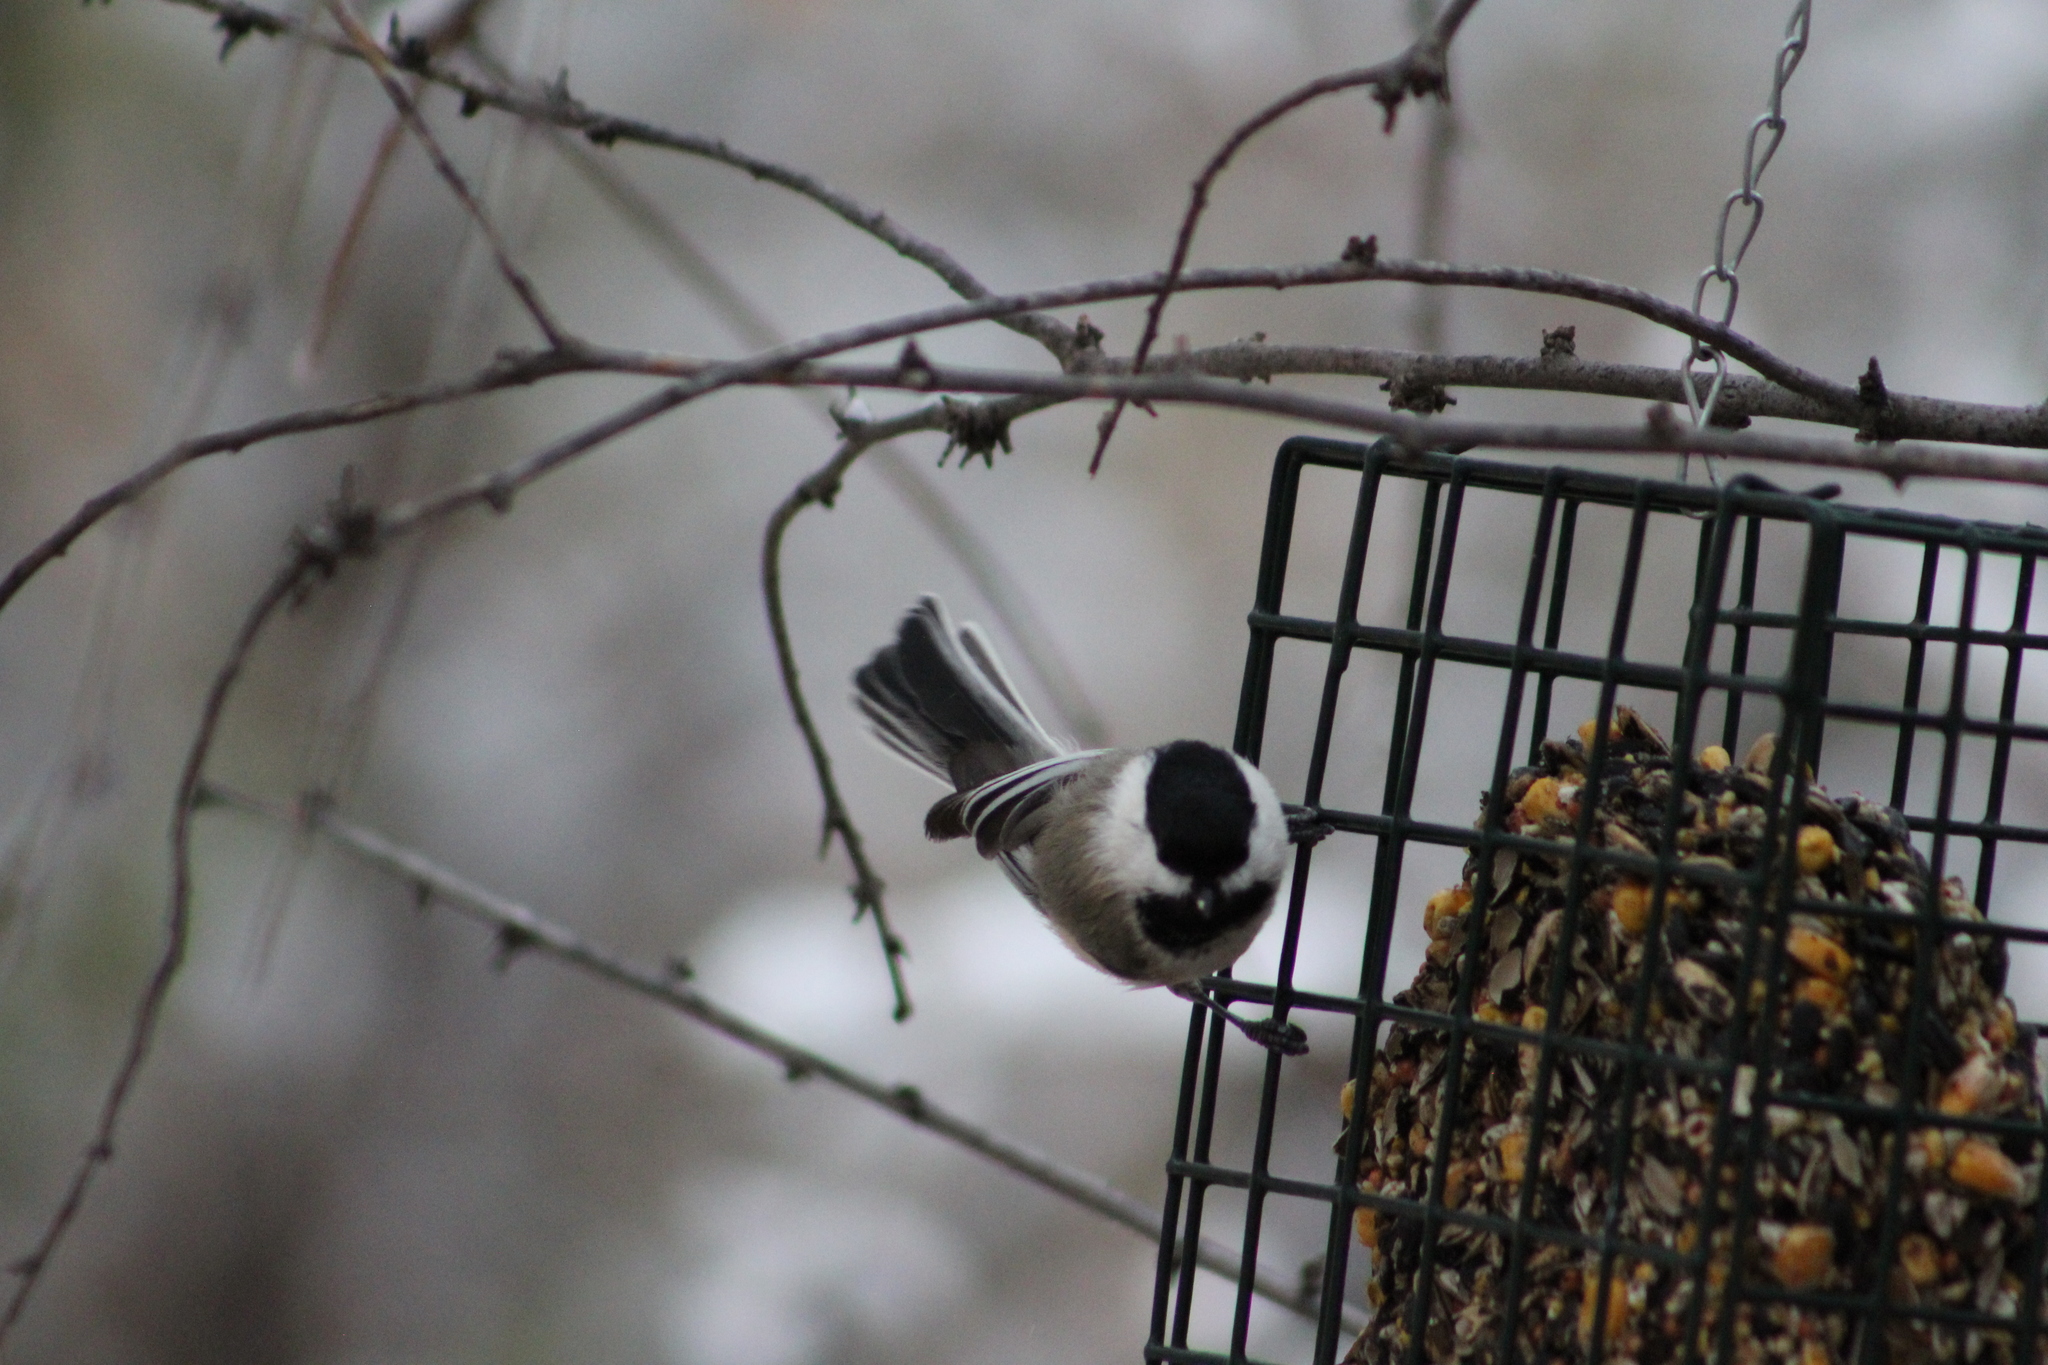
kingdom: Animalia
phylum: Chordata
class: Aves
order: Passeriformes
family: Paridae
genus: Poecile
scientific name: Poecile atricapillus
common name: Black-capped chickadee
